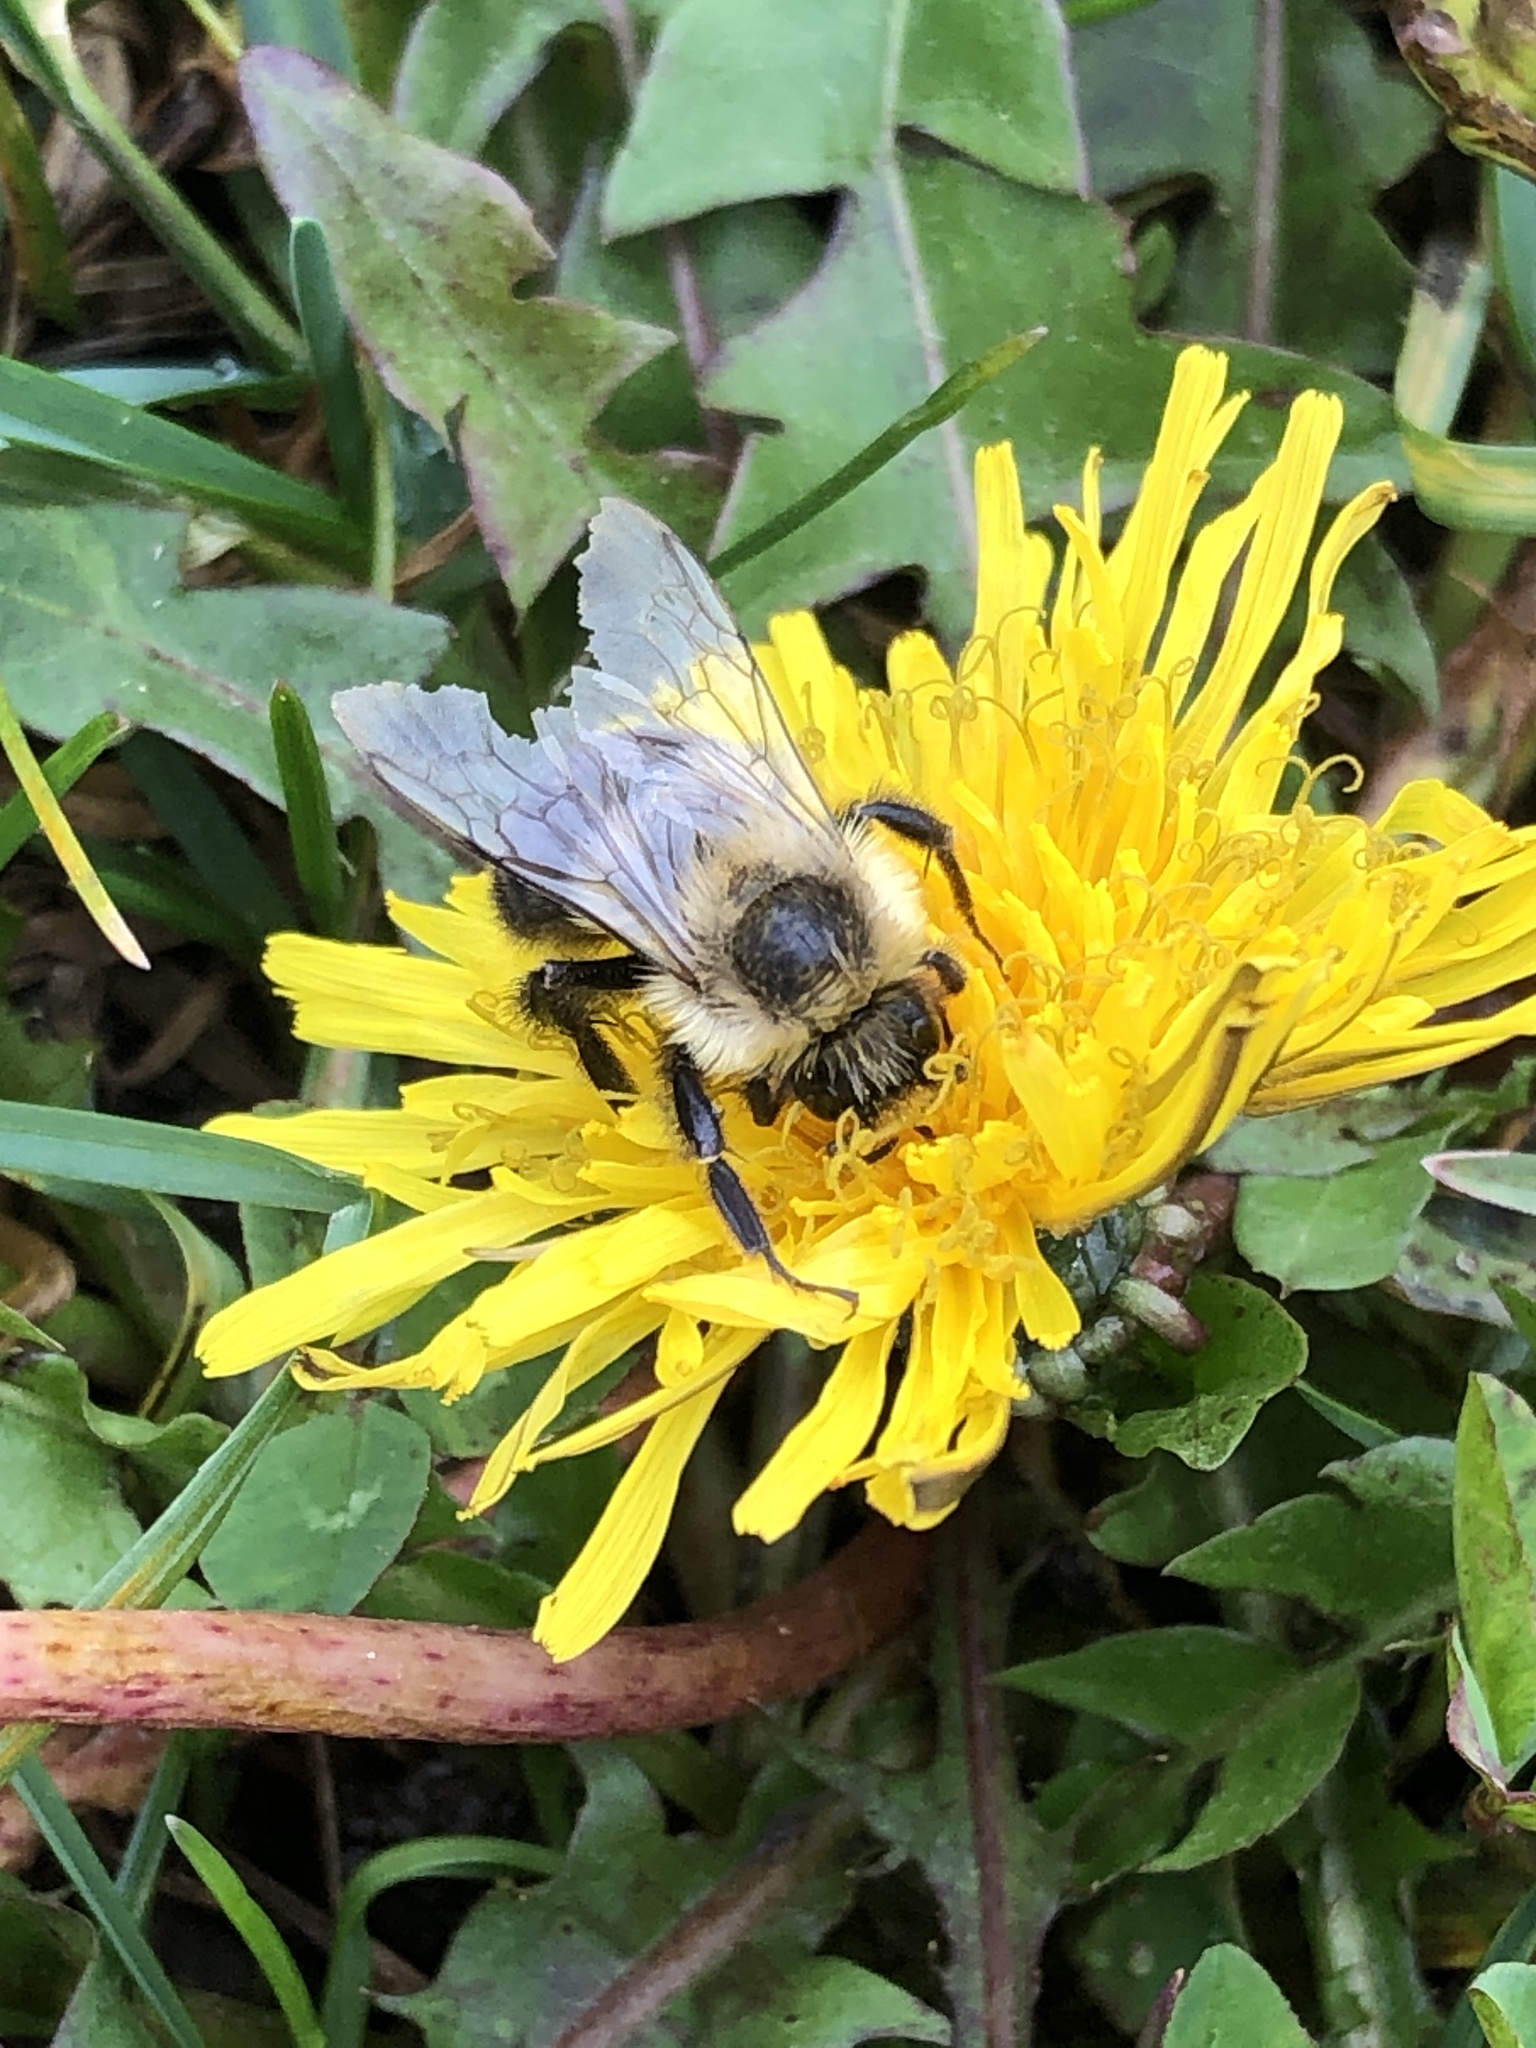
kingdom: Animalia
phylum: Arthropoda
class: Insecta
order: Hymenoptera
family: Apidae
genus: Bombus
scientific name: Bombus impatiens
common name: Common eastern bumble bee
